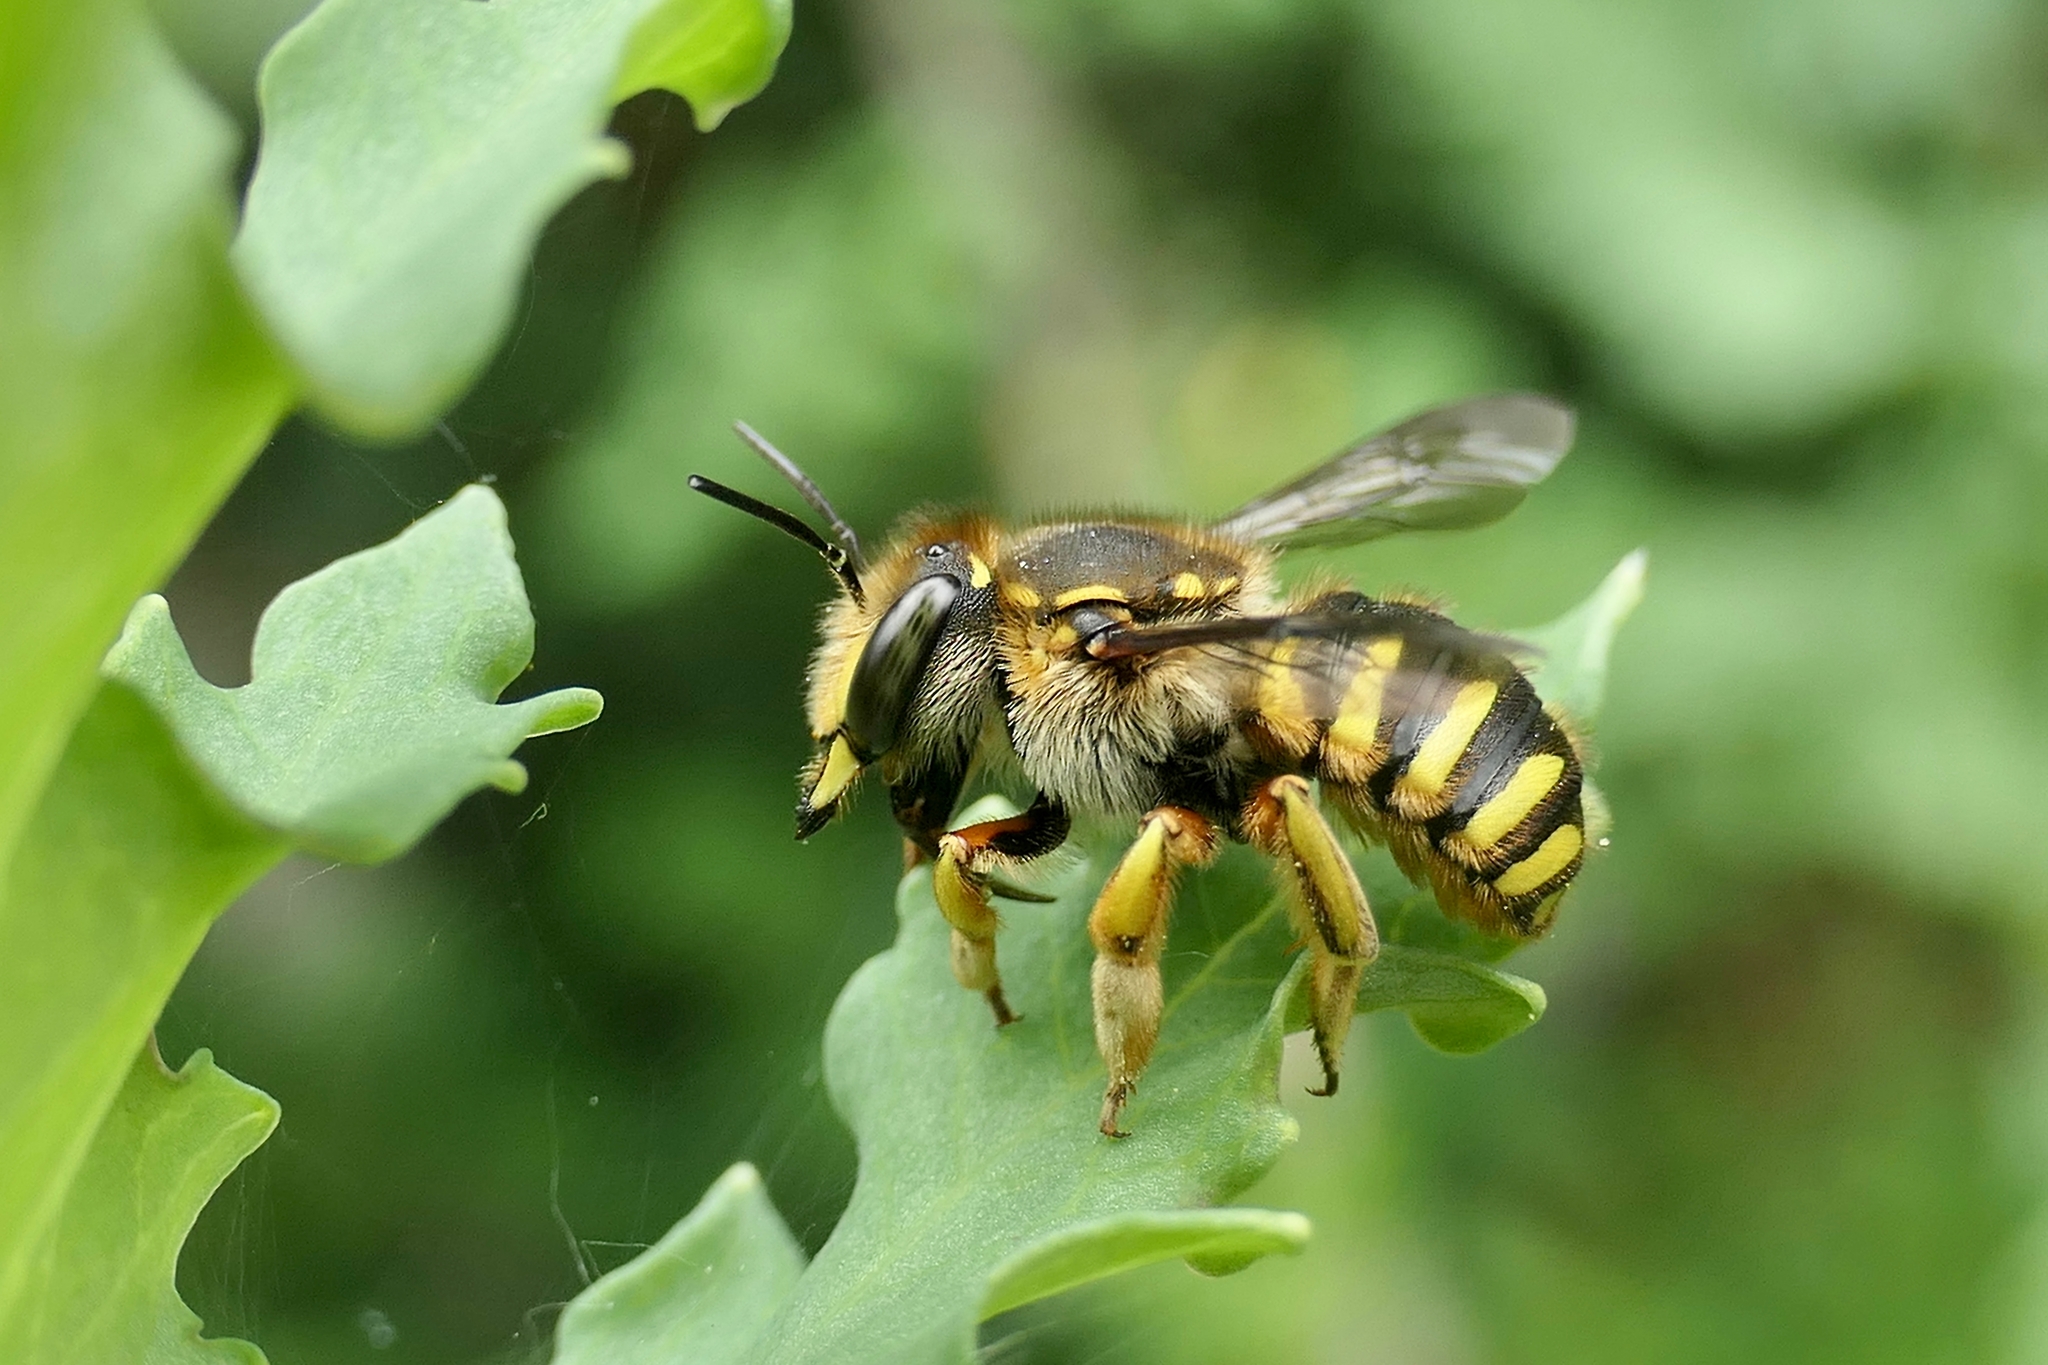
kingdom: Animalia
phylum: Arthropoda
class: Insecta
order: Hymenoptera
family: Megachilidae
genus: Anthidium
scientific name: Anthidium manicatum
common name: Wool carder bee
